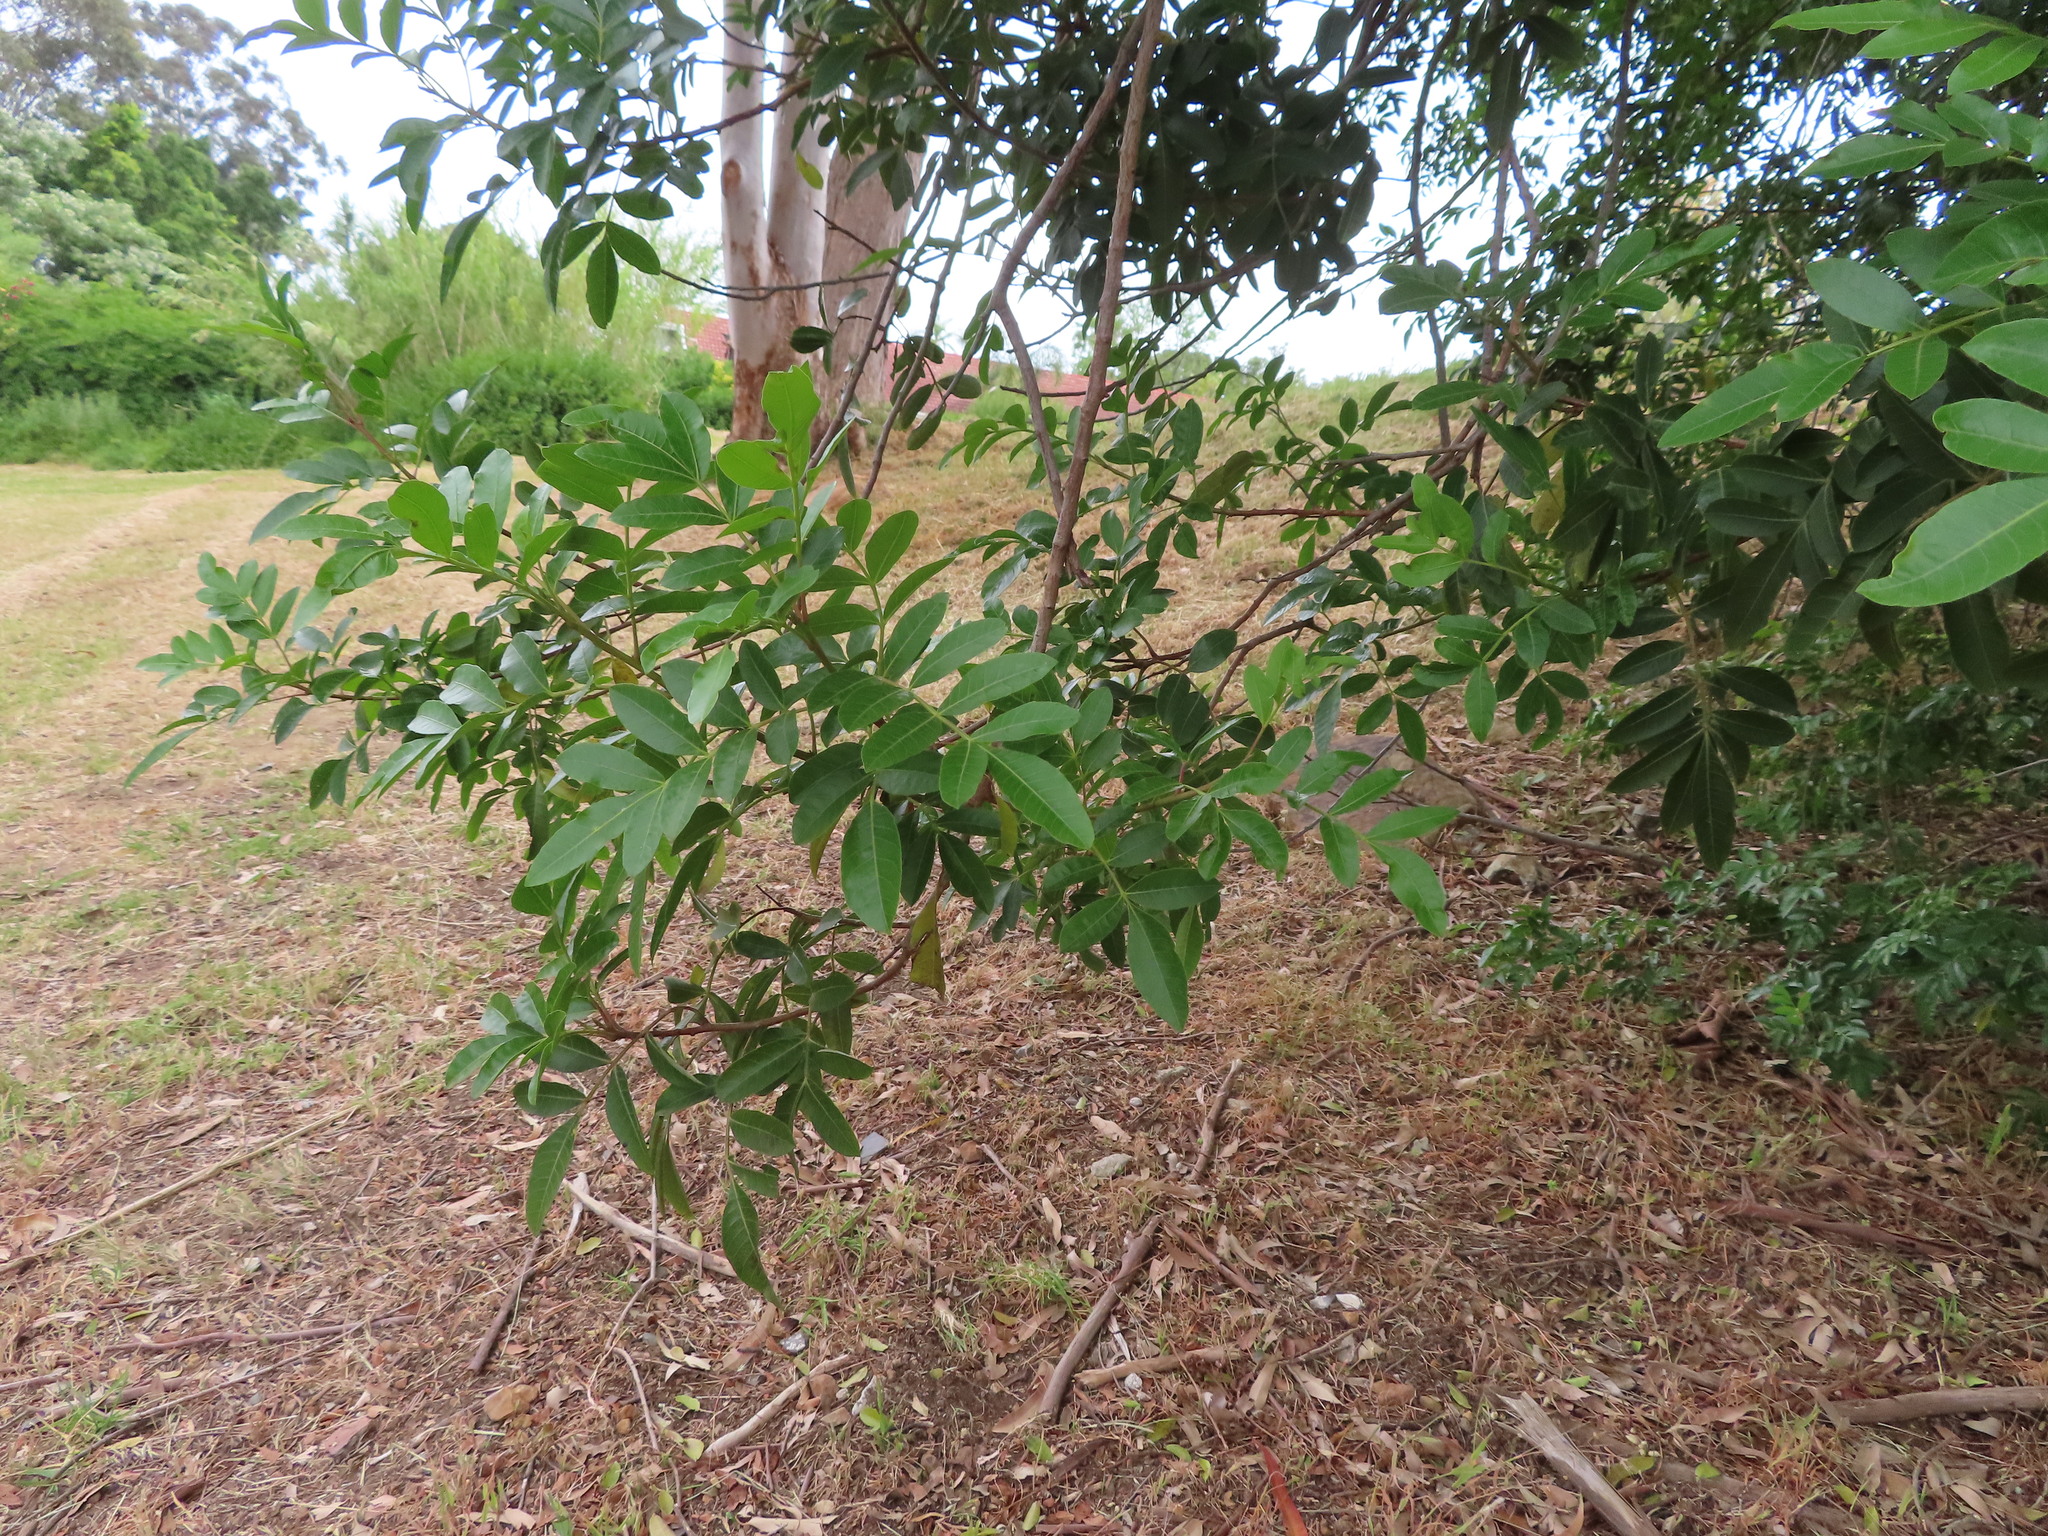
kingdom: Plantae
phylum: Tracheophyta
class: Magnoliopsida
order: Sapindales
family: Anacardiaceae
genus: Schinus
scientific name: Schinus terebinthifolia
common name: Brazilian peppertree
